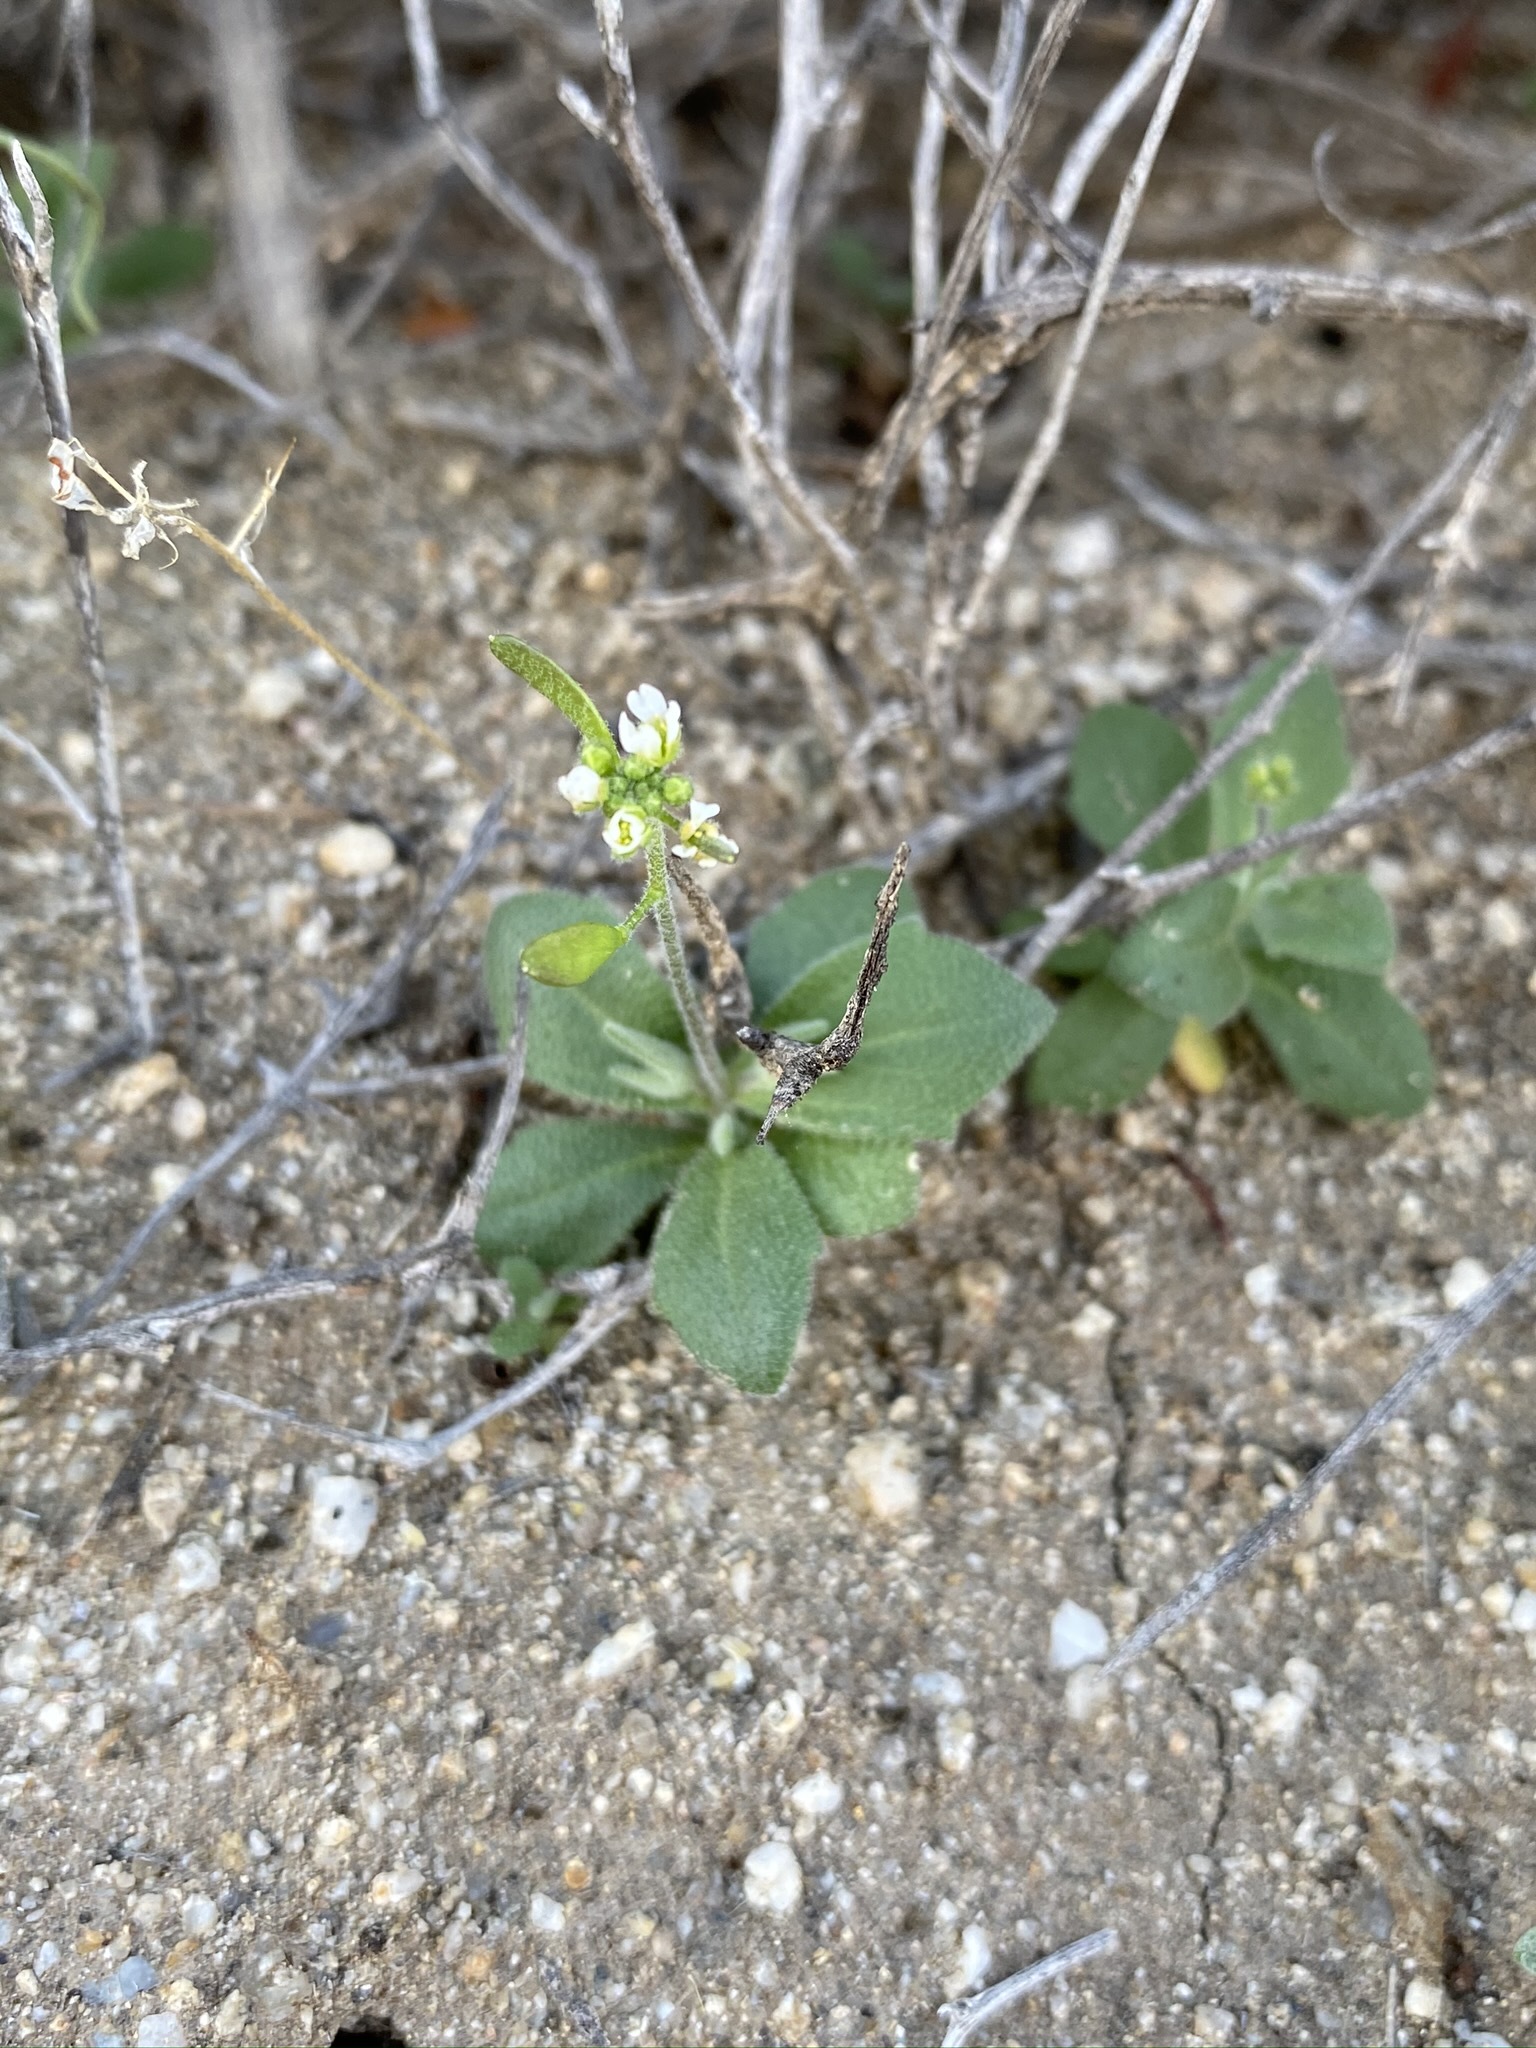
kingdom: Plantae
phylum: Tracheophyta
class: Magnoliopsida
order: Brassicales
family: Brassicaceae
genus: Tomostima
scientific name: Tomostima cuneifolia
